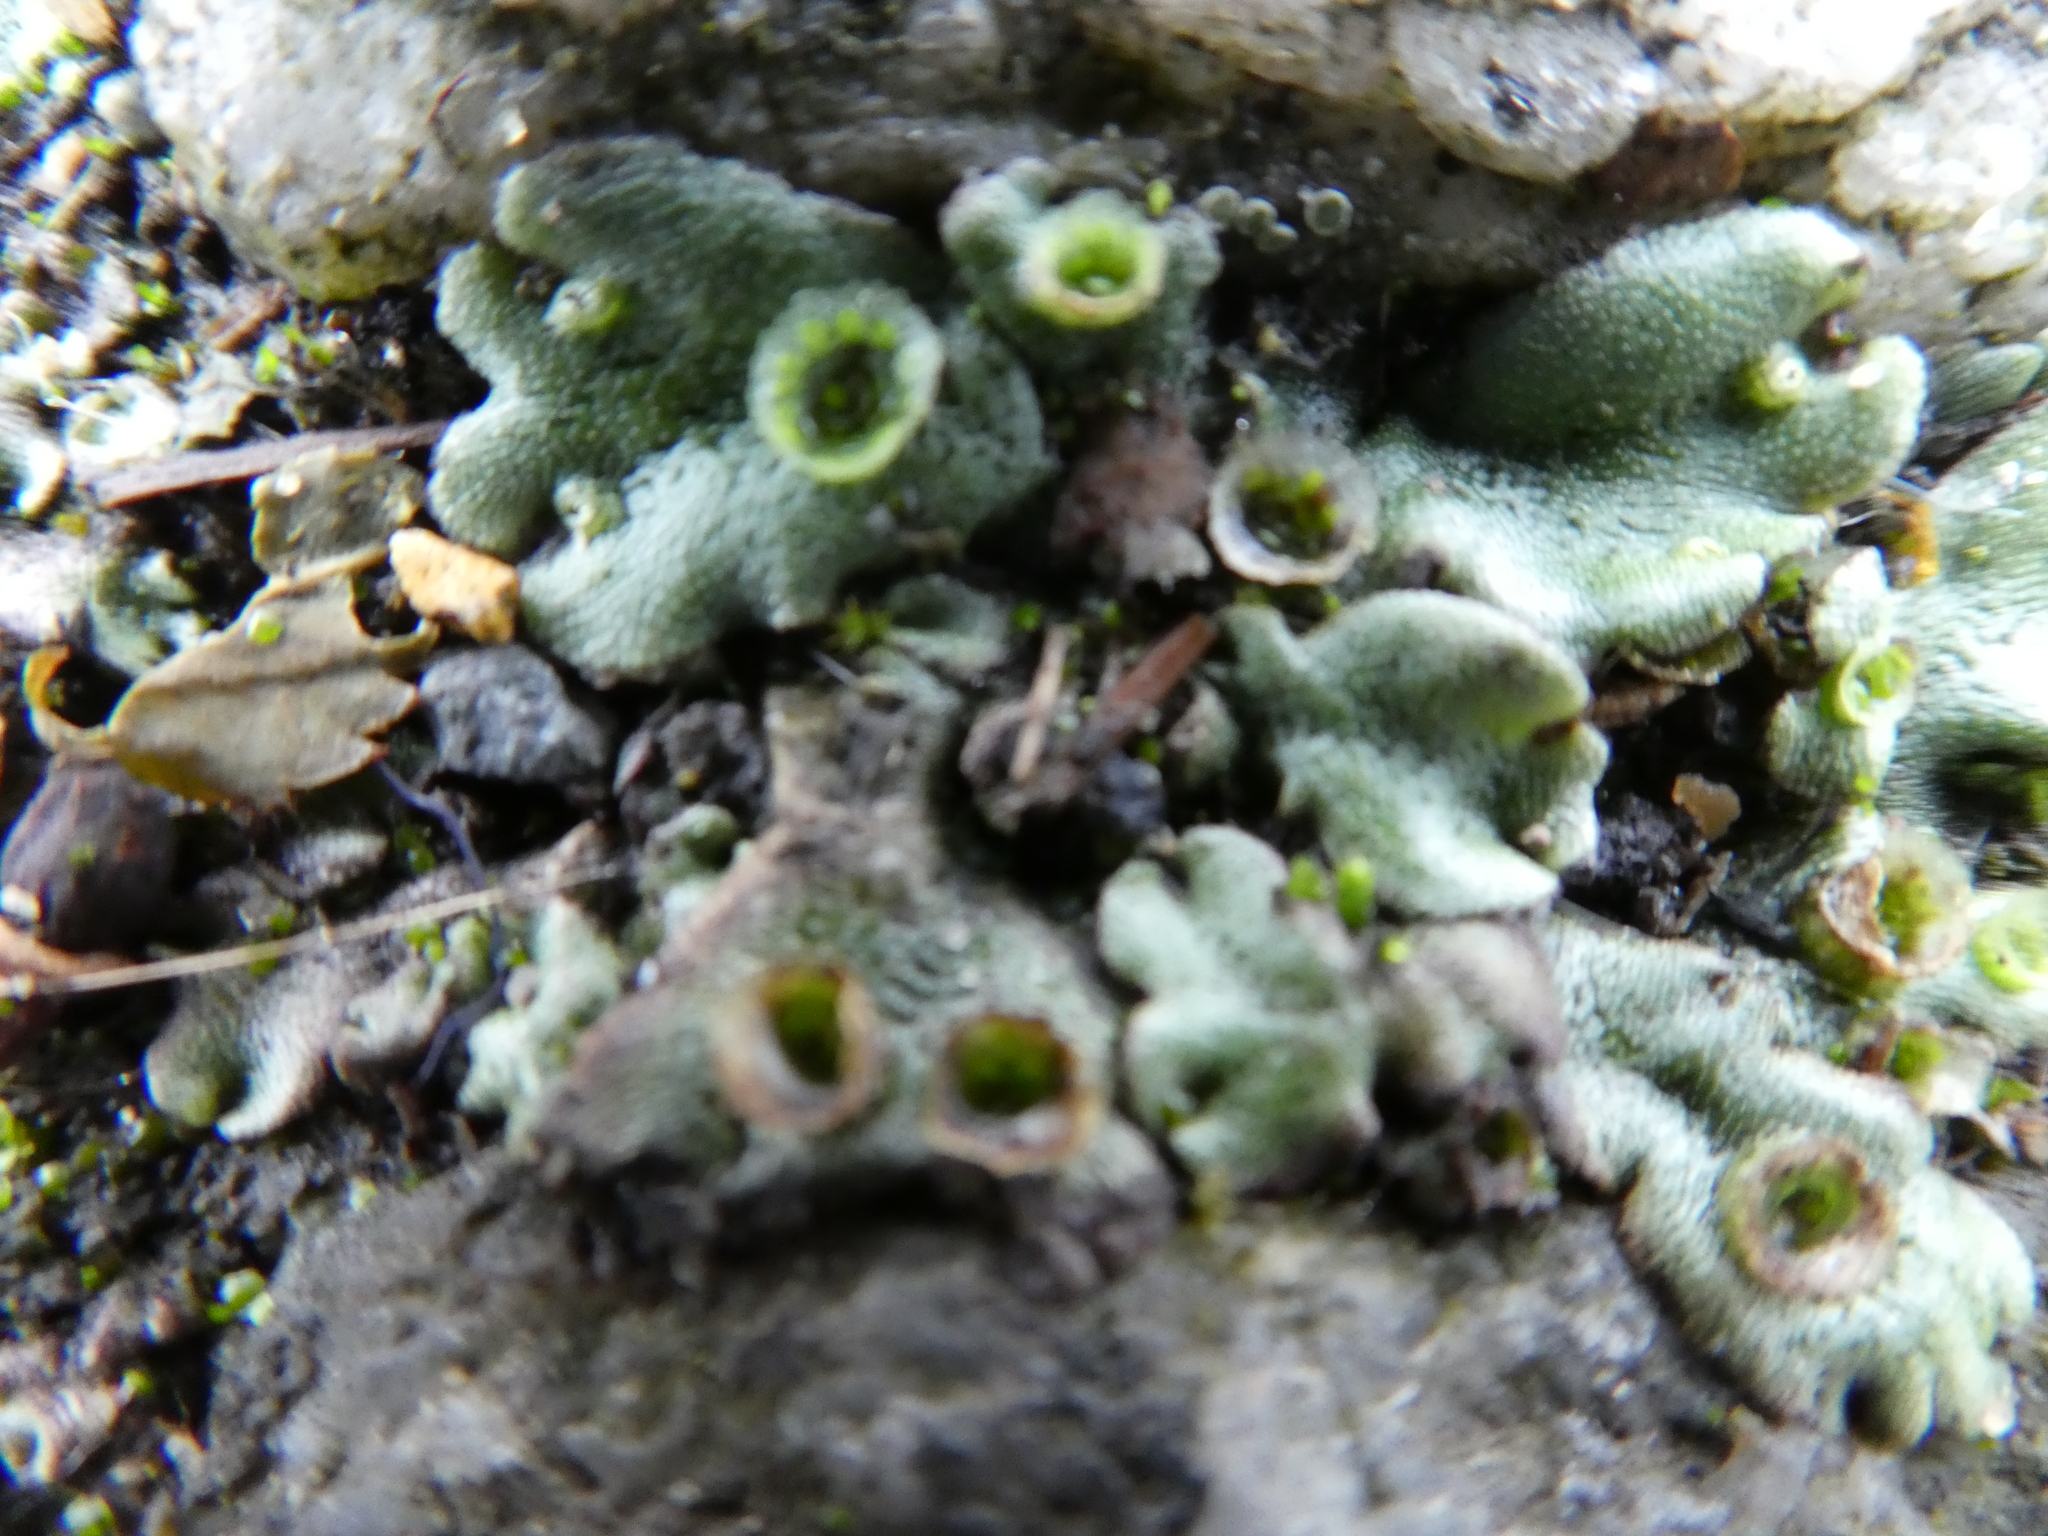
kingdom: Plantae
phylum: Marchantiophyta
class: Marchantiopsida
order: Marchantiales
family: Marchantiaceae
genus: Marchantia
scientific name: Marchantia polymorpha
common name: Common liverwort
